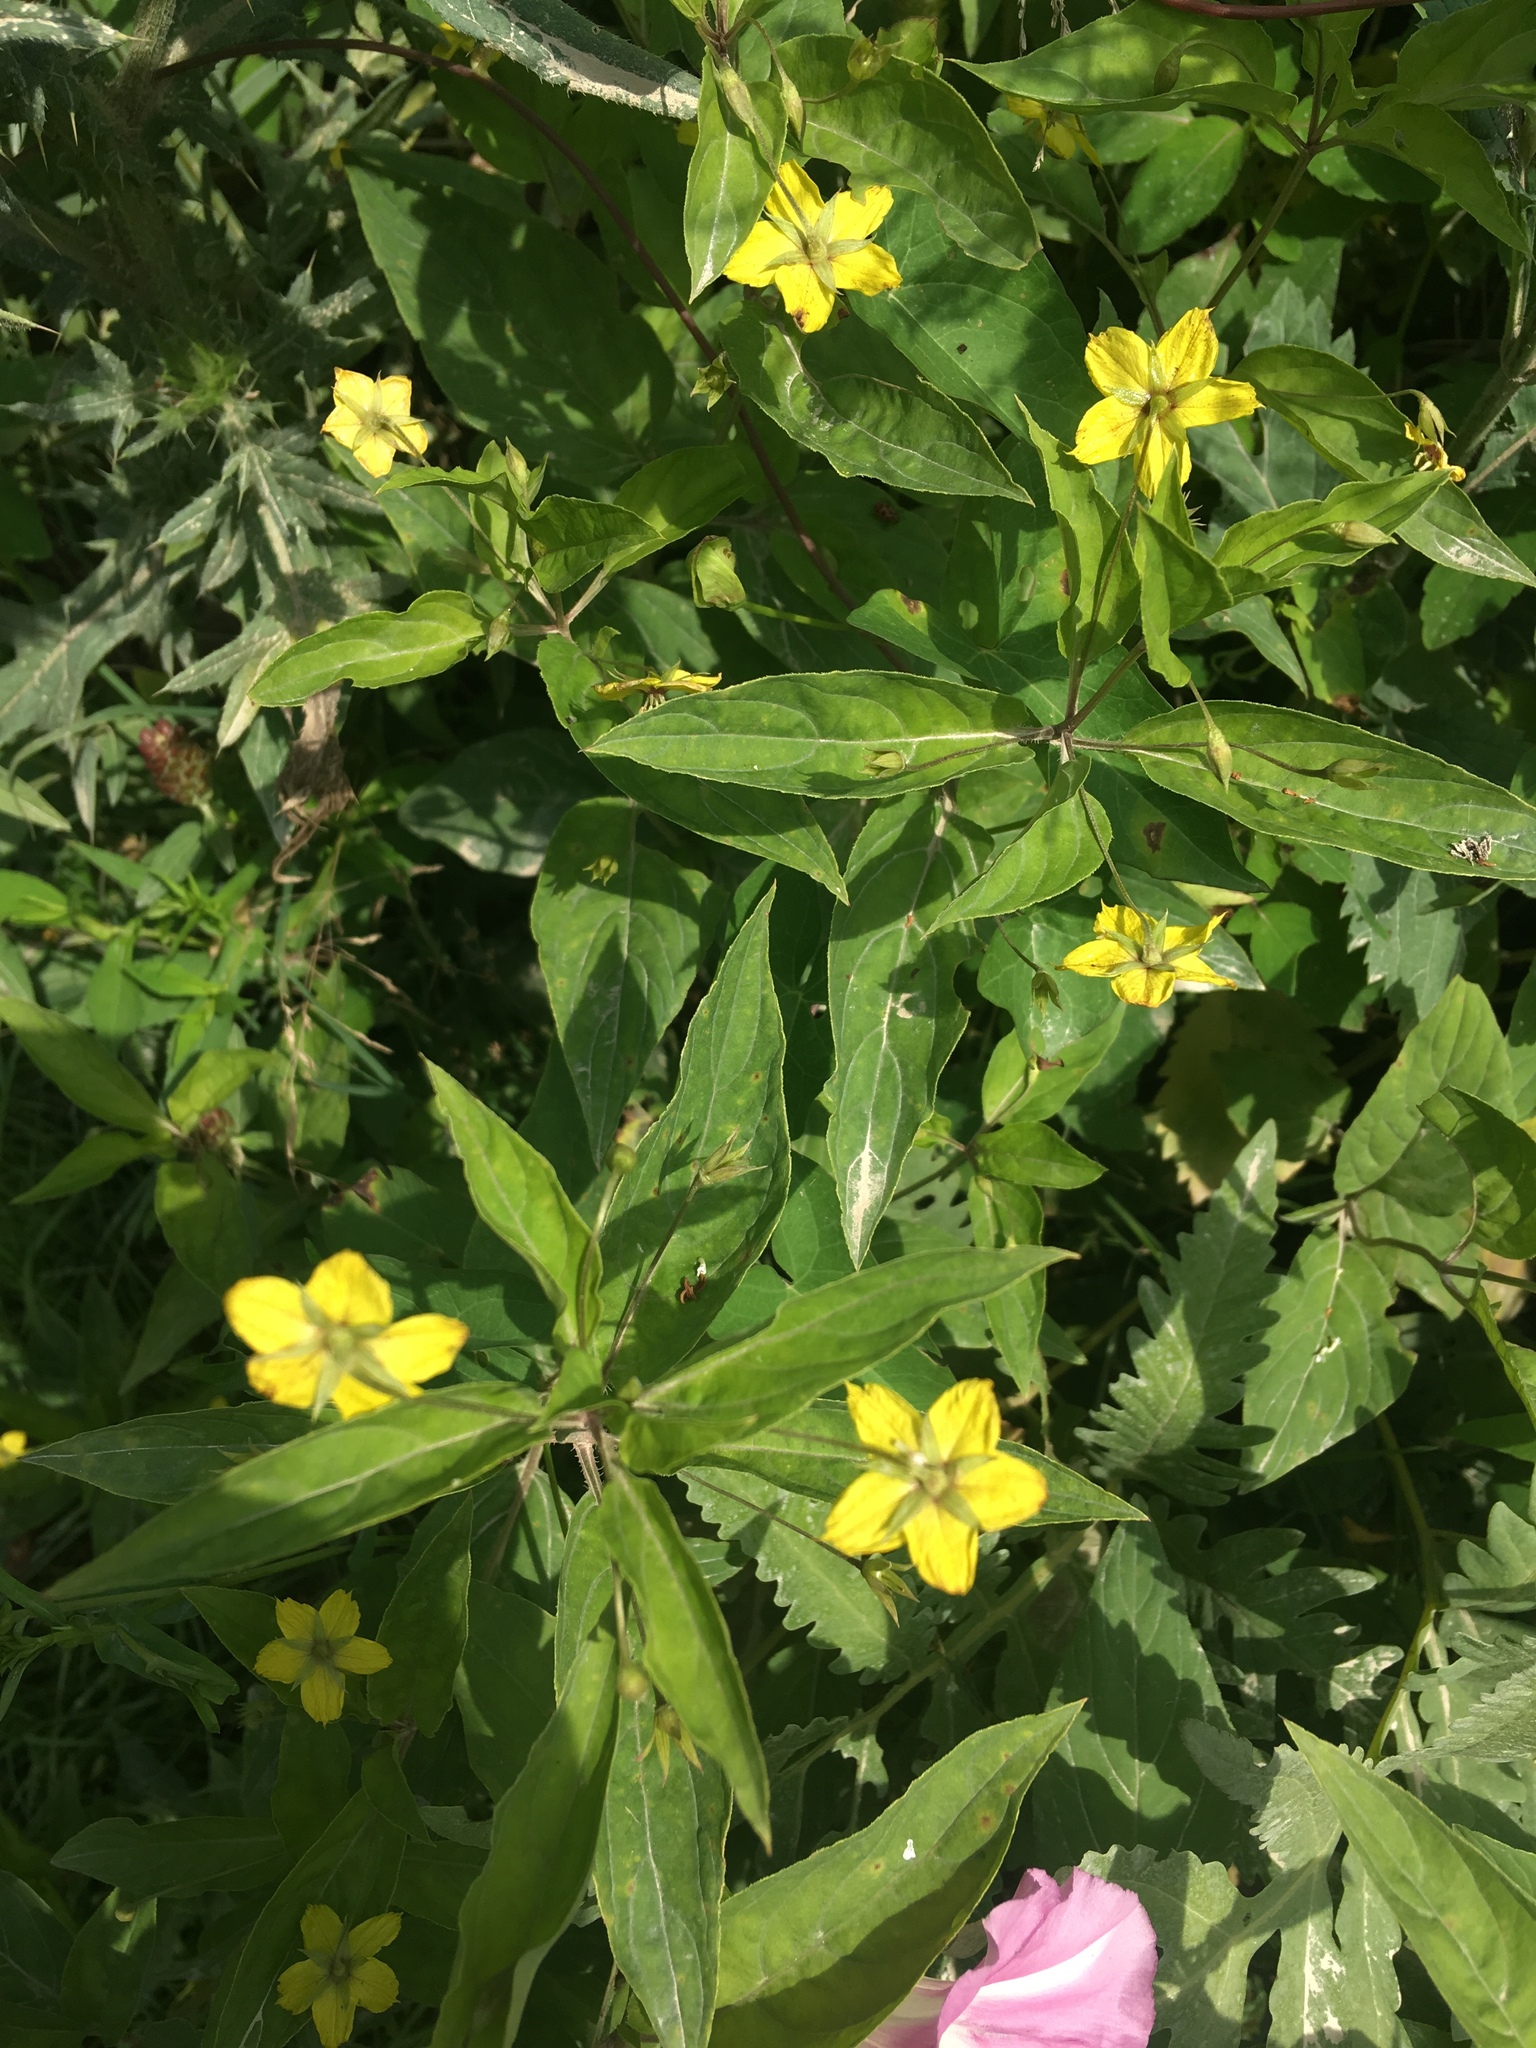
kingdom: Plantae
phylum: Tracheophyta
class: Magnoliopsida
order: Ericales
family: Primulaceae
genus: Lysimachia
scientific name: Lysimachia ciliata
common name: Fringed loosestrife
